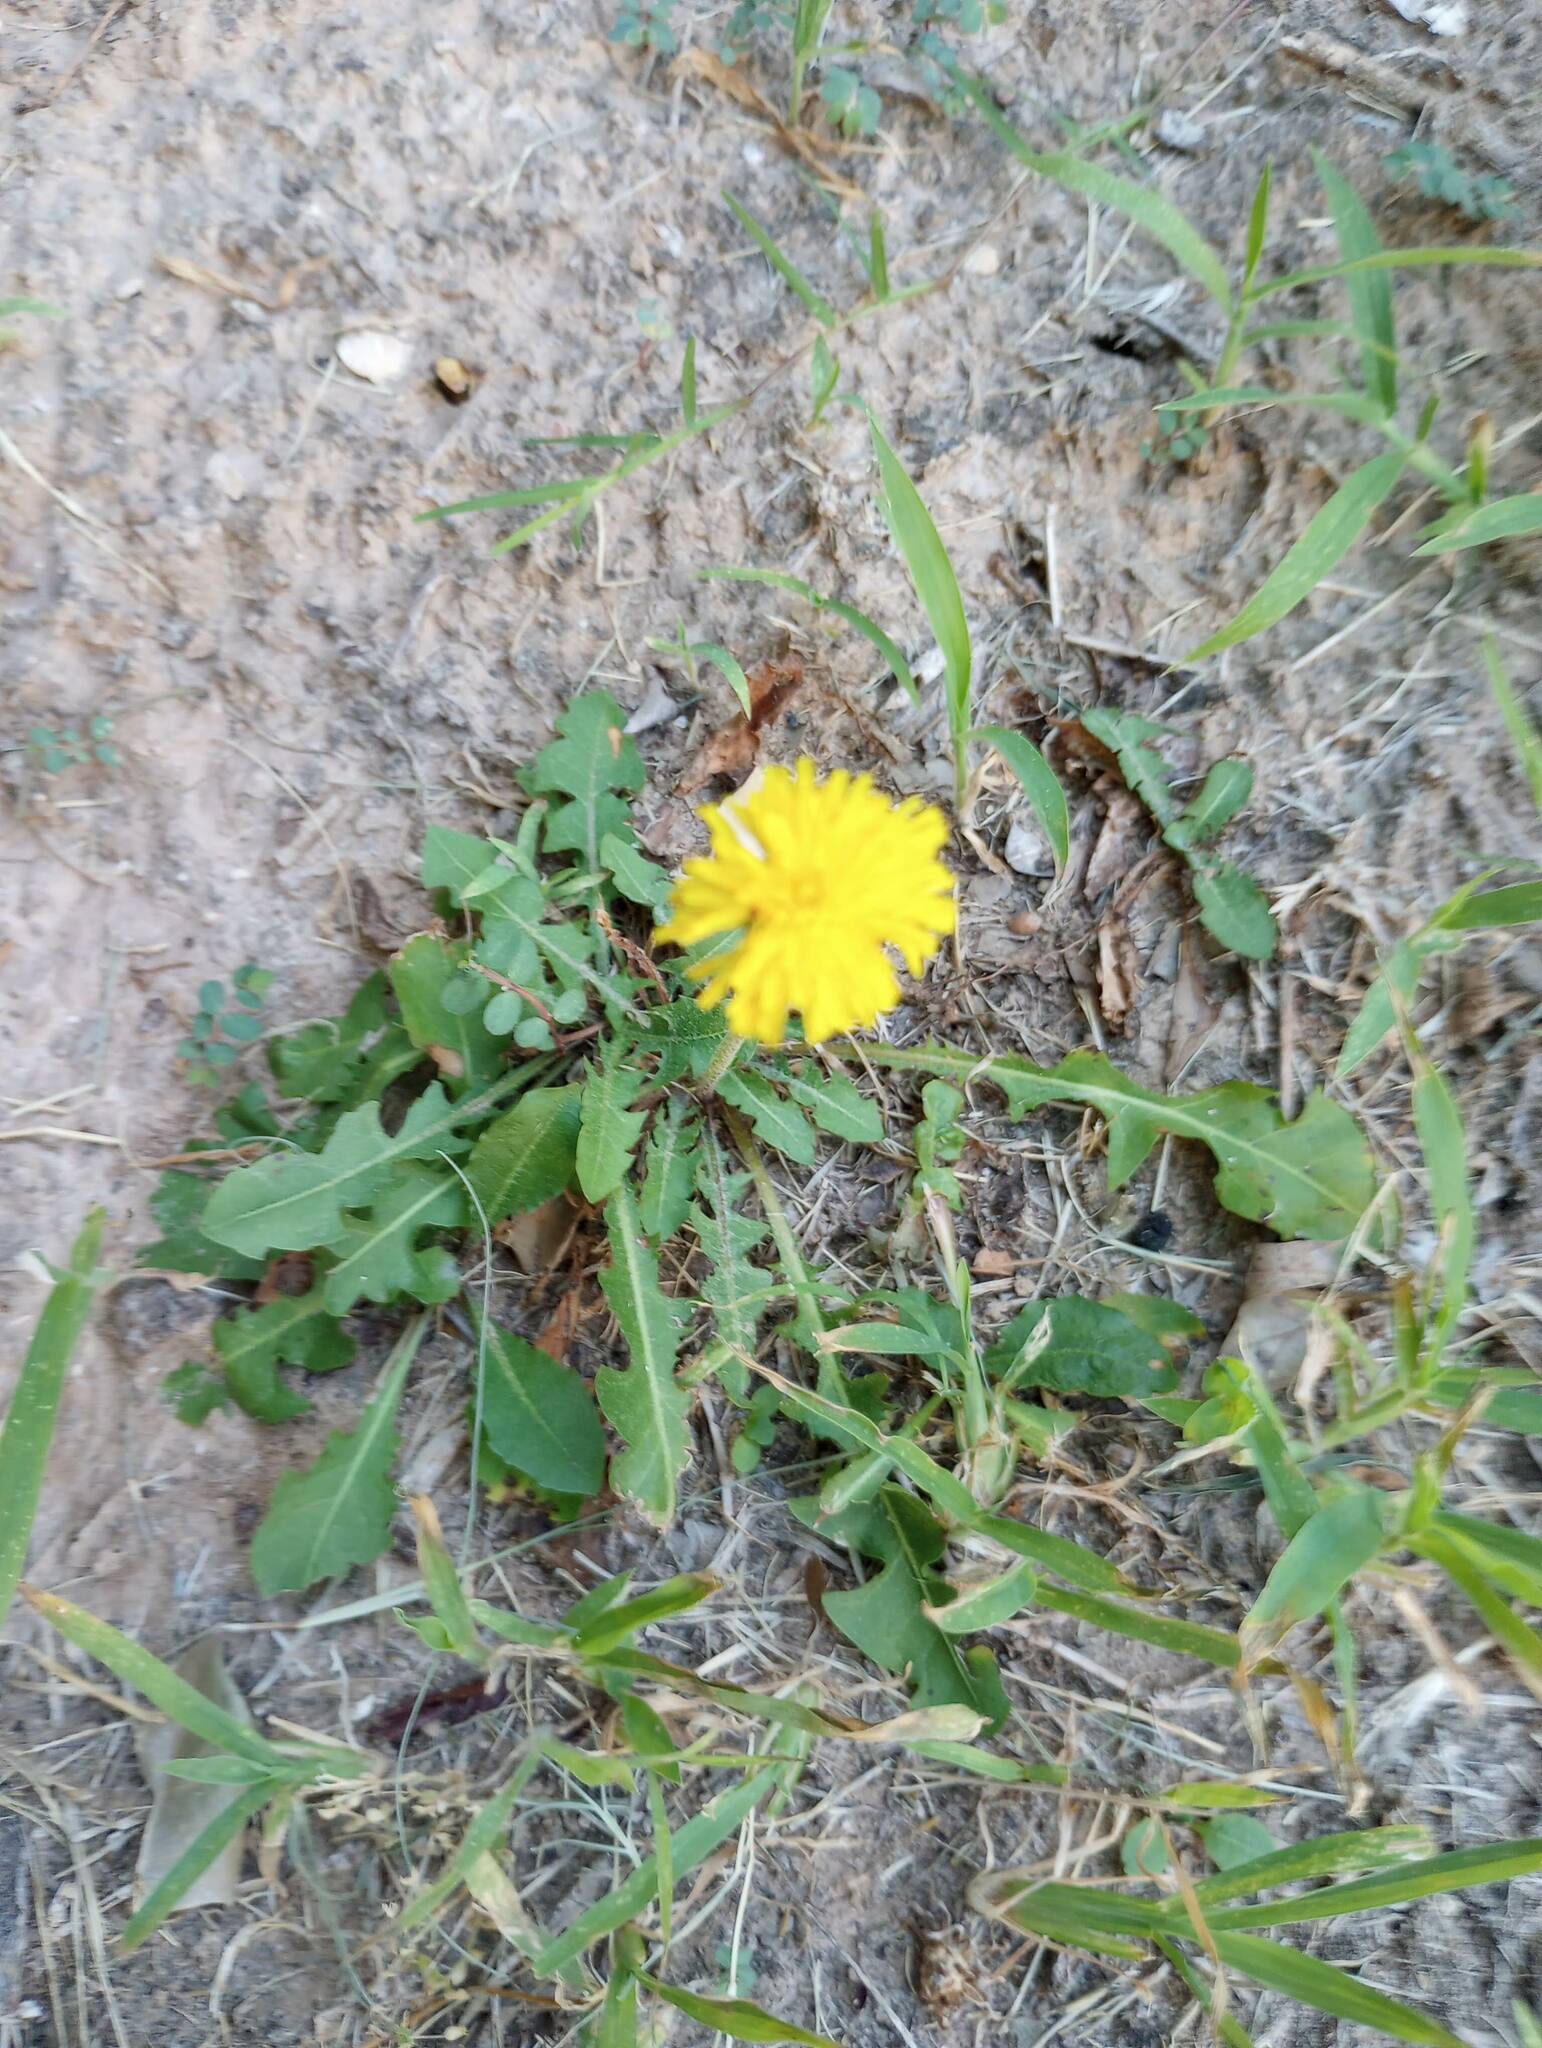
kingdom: Plantae
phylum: Tracheophyta
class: Magnoliopsida
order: Asterales
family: Asteraceae
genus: Taraxacum
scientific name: Taraxacum
